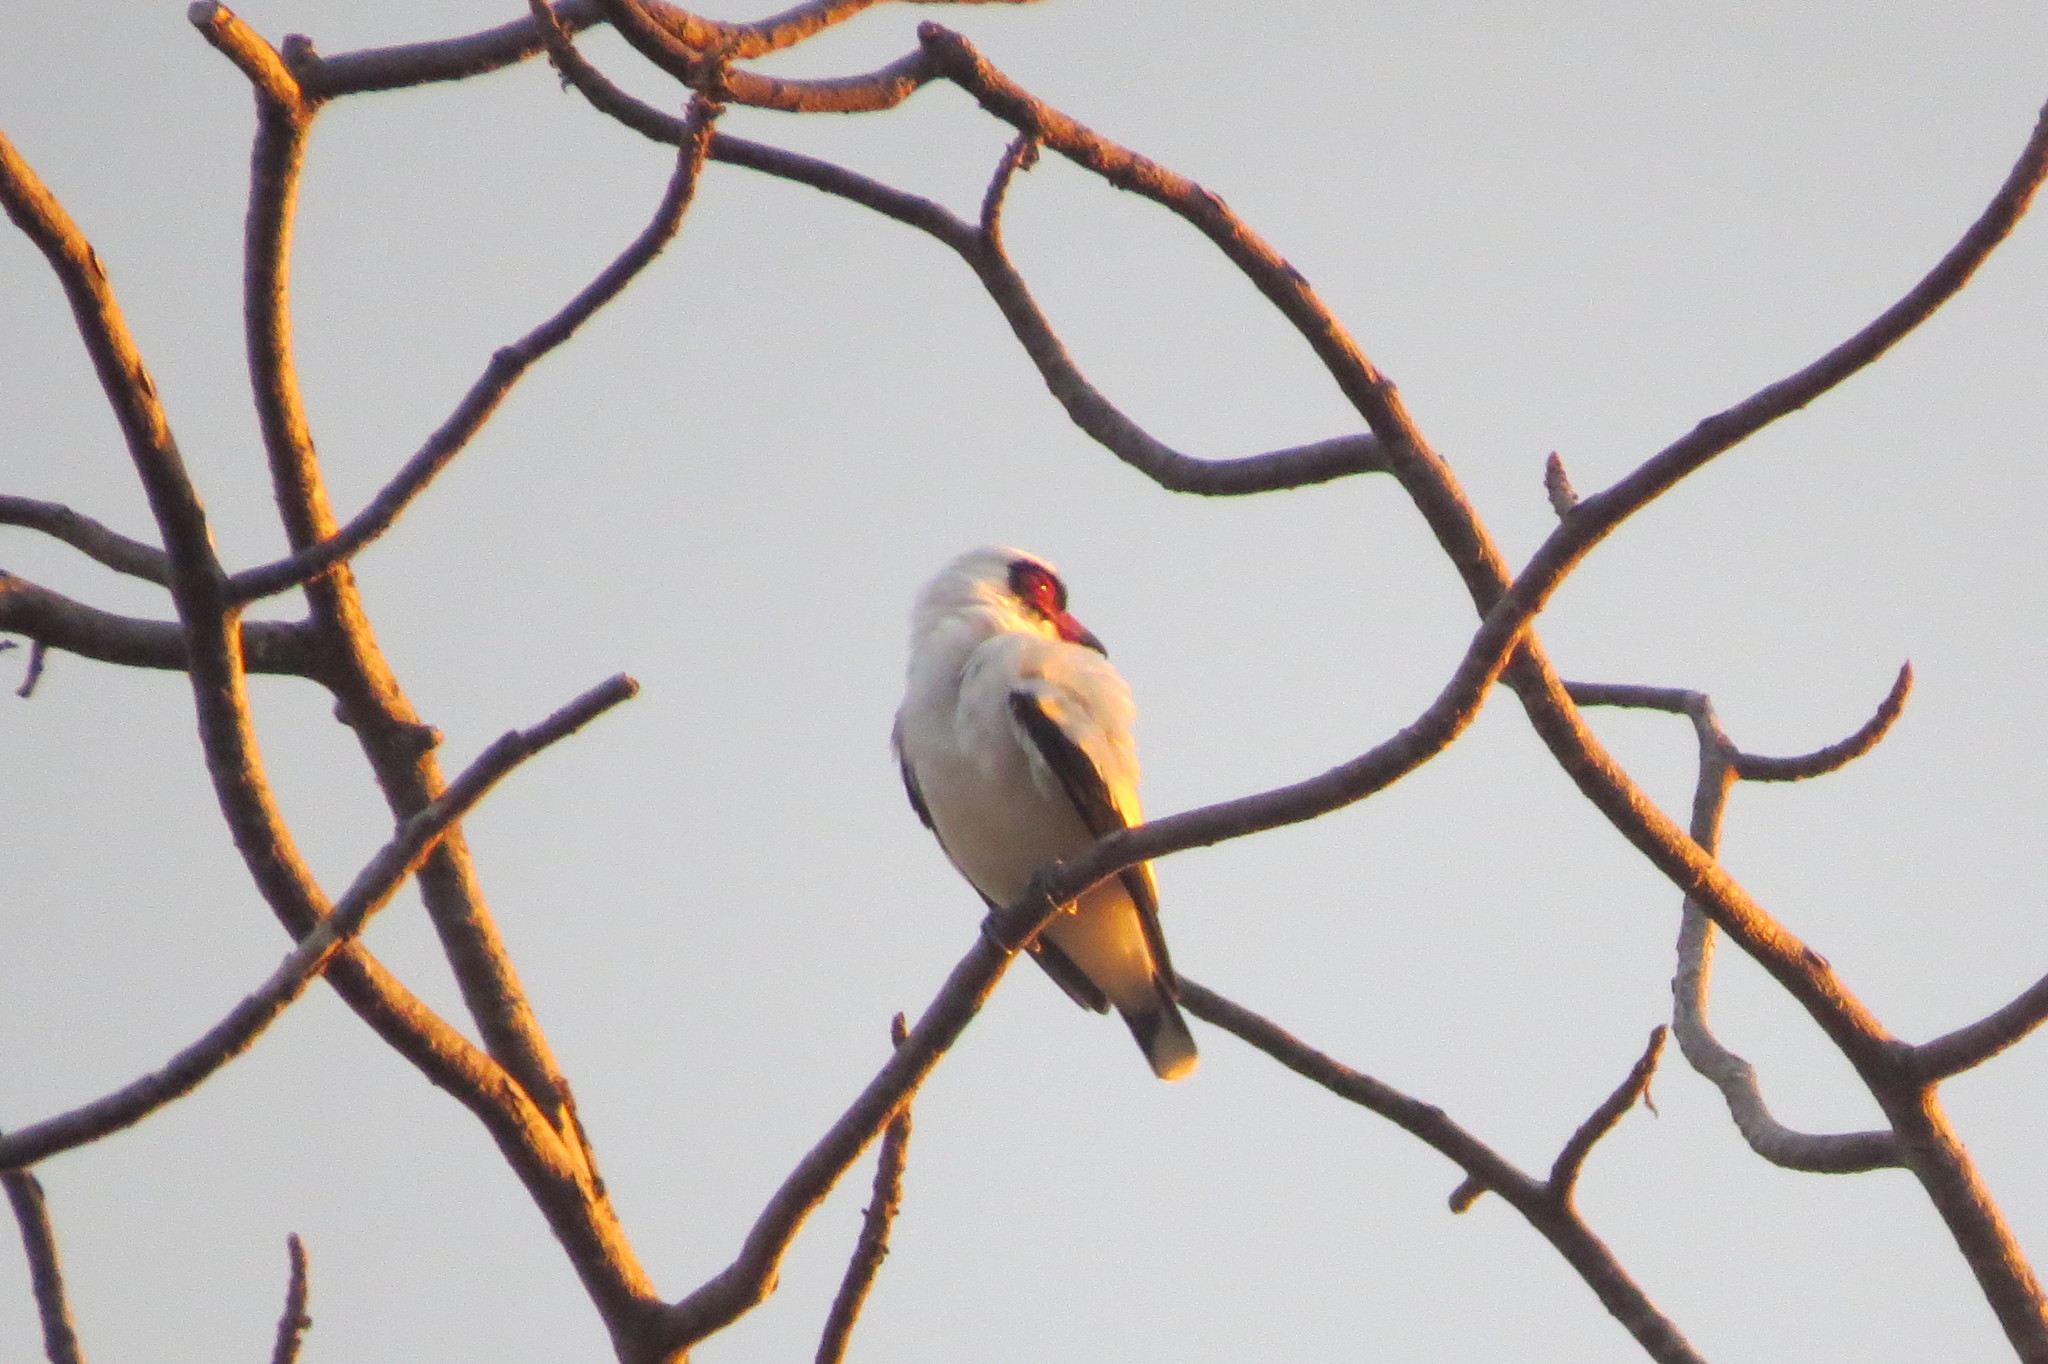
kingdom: Animalia
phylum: Chordata
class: Aves
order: Passeriformes
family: Cotingidae
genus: Tityra
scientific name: Tityra semifasciata
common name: Masked tityra
